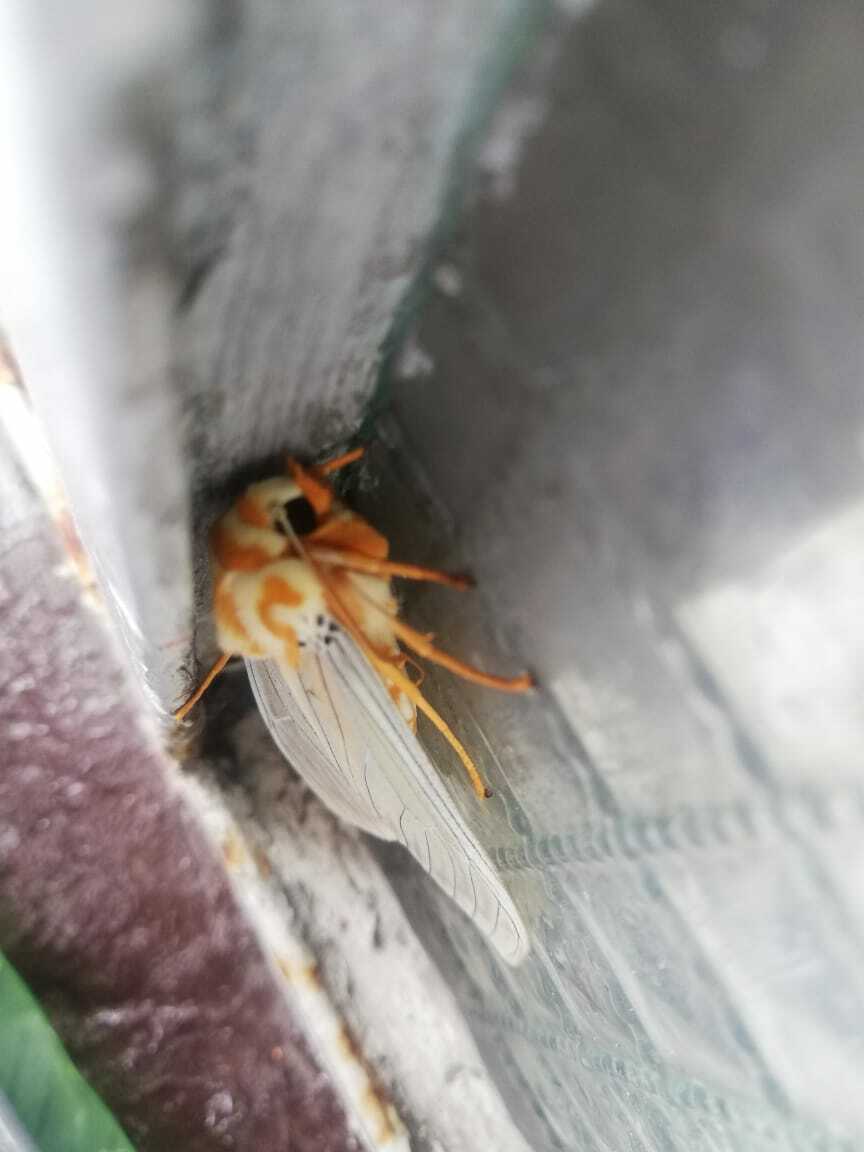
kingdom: Animalia
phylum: Arthropoda
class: Insecta
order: Lepidoptera
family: Erebidae
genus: Amastus
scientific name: Amastus thalassina
